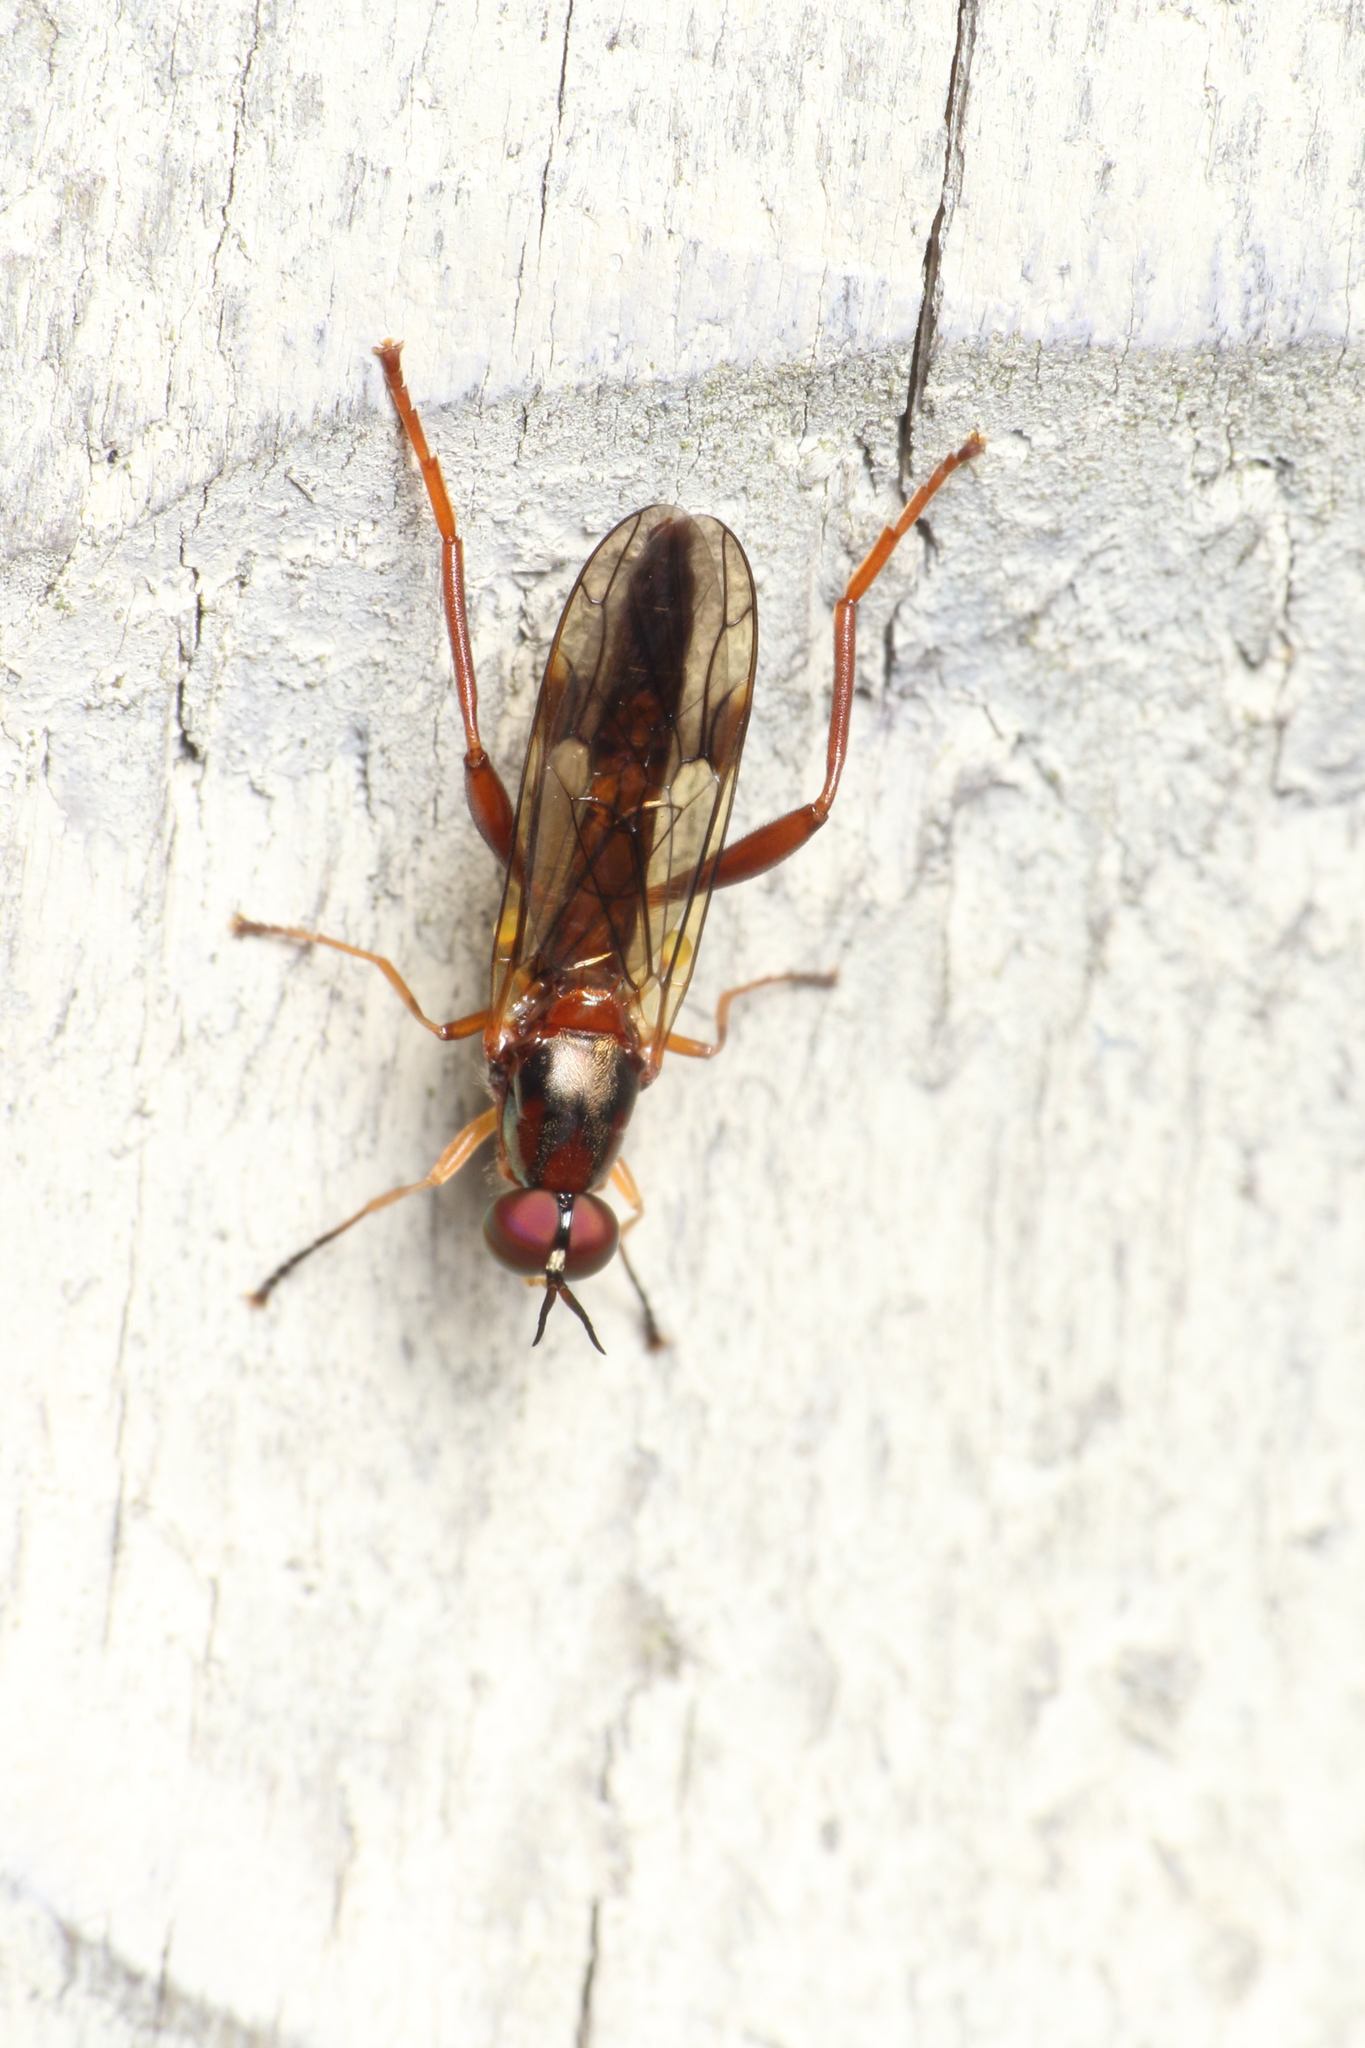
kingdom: Animalia
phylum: Arthropoda
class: Insecta
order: Diptera
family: Stratiomyidae
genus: Benhamyia
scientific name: Benhamyia straznitzkii
